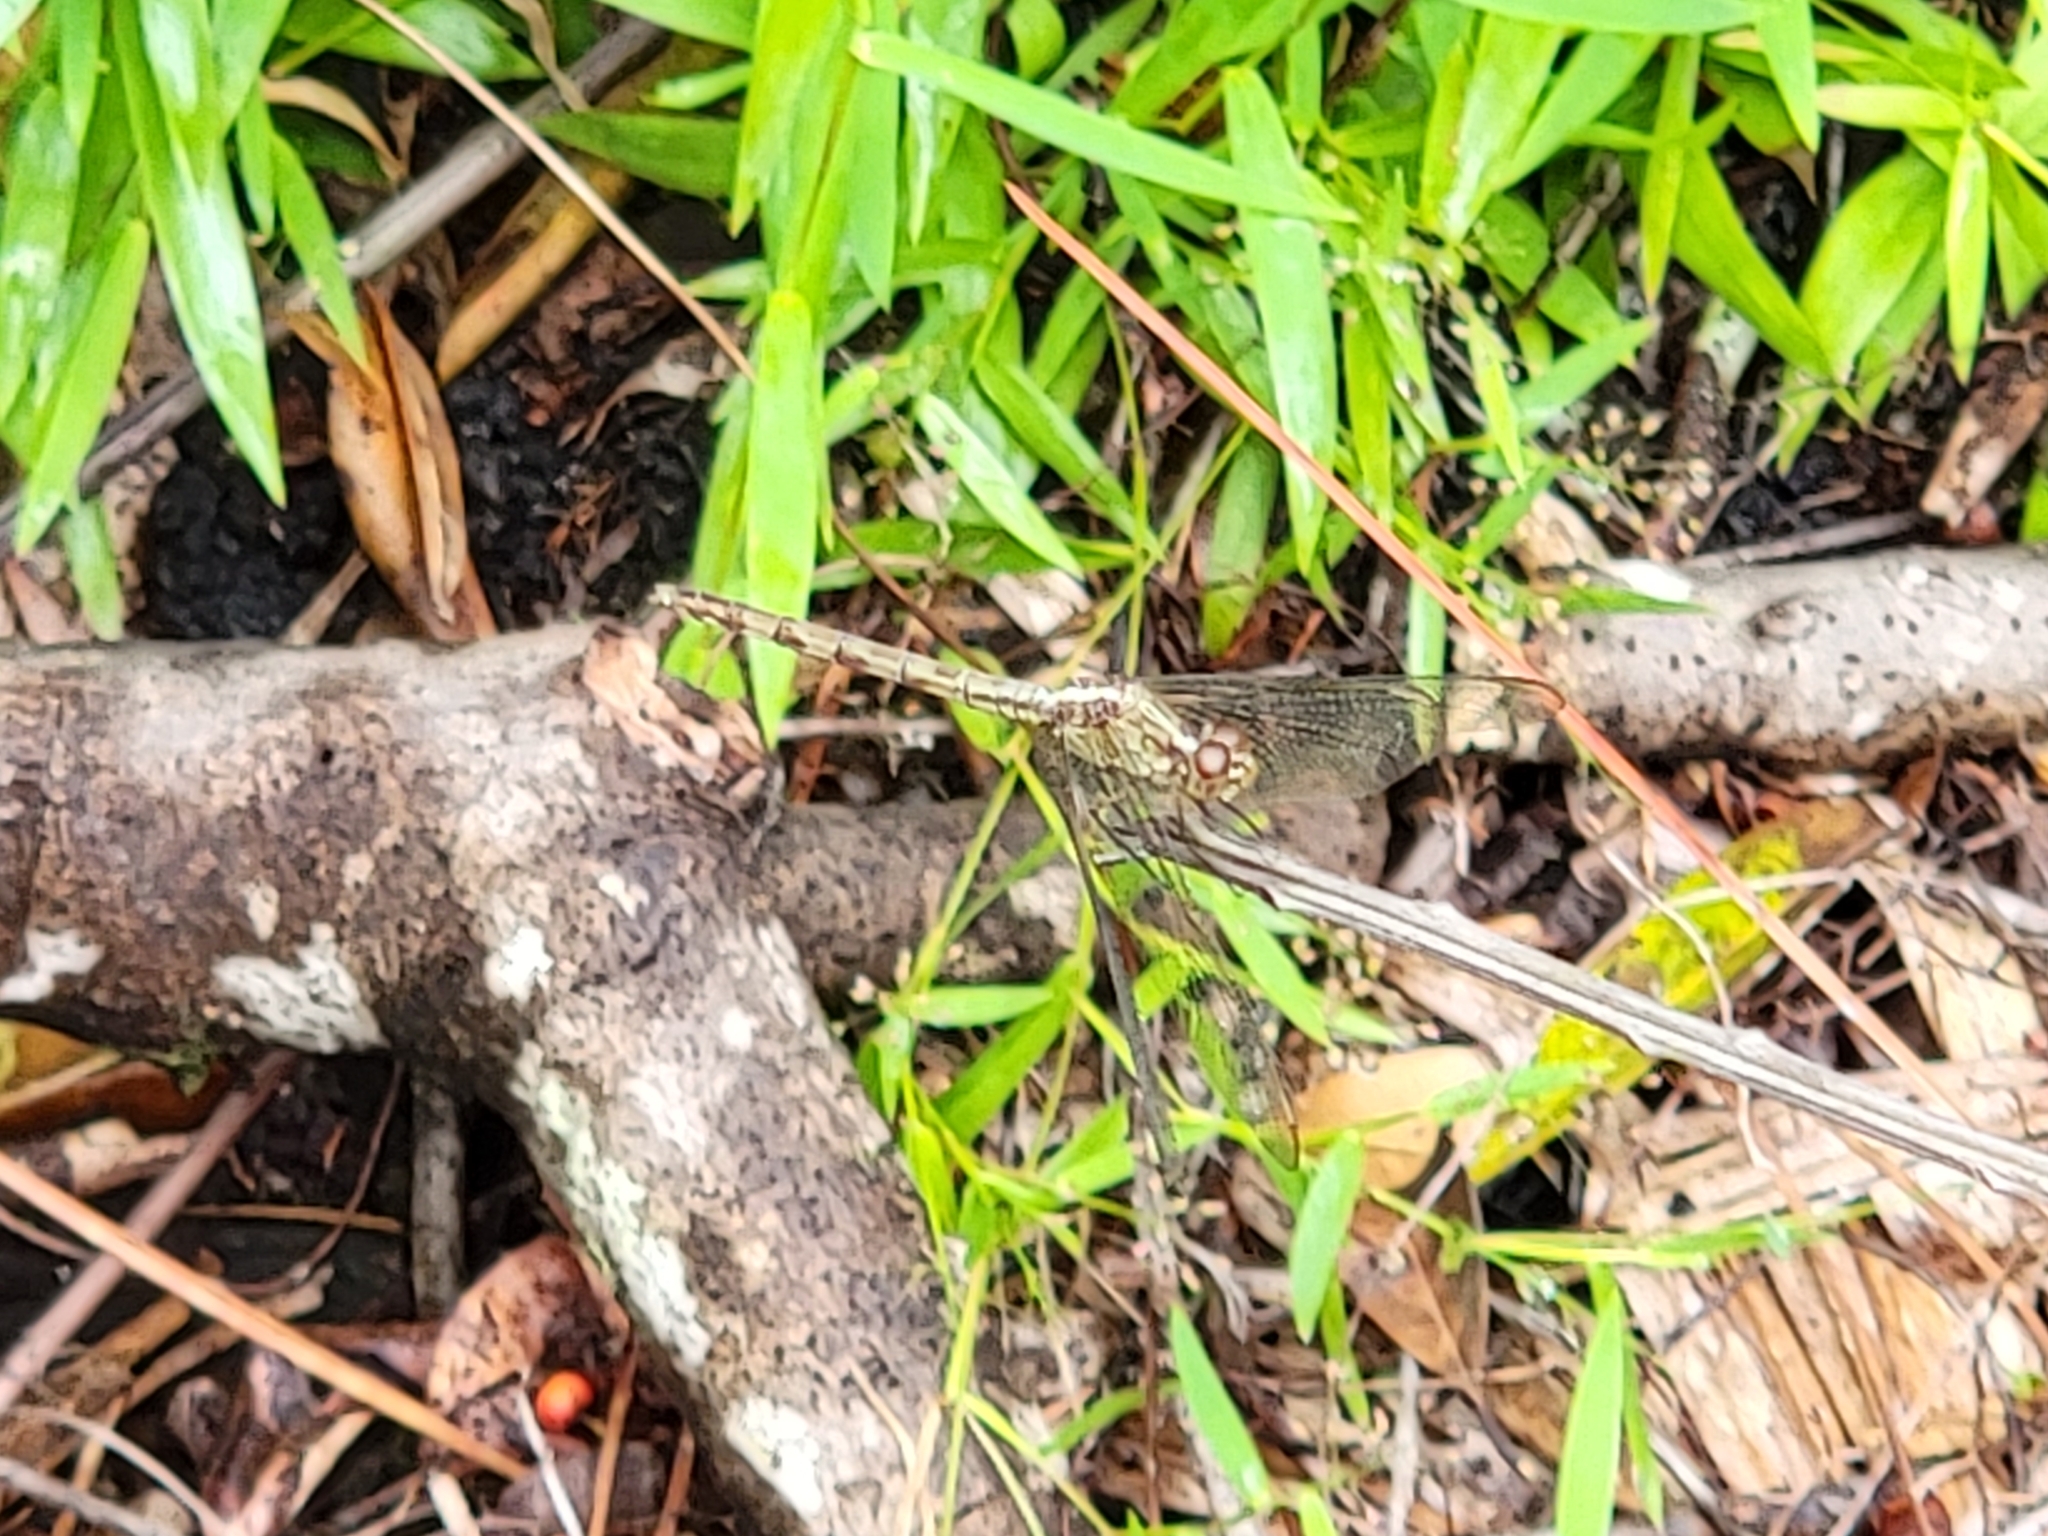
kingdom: Animalia
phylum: Arthropoda
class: Insecta
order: Odonata
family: Libellulidae
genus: Erythrodiplax
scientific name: Erythrodiplax umbrata
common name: Band-winged dragonlet
